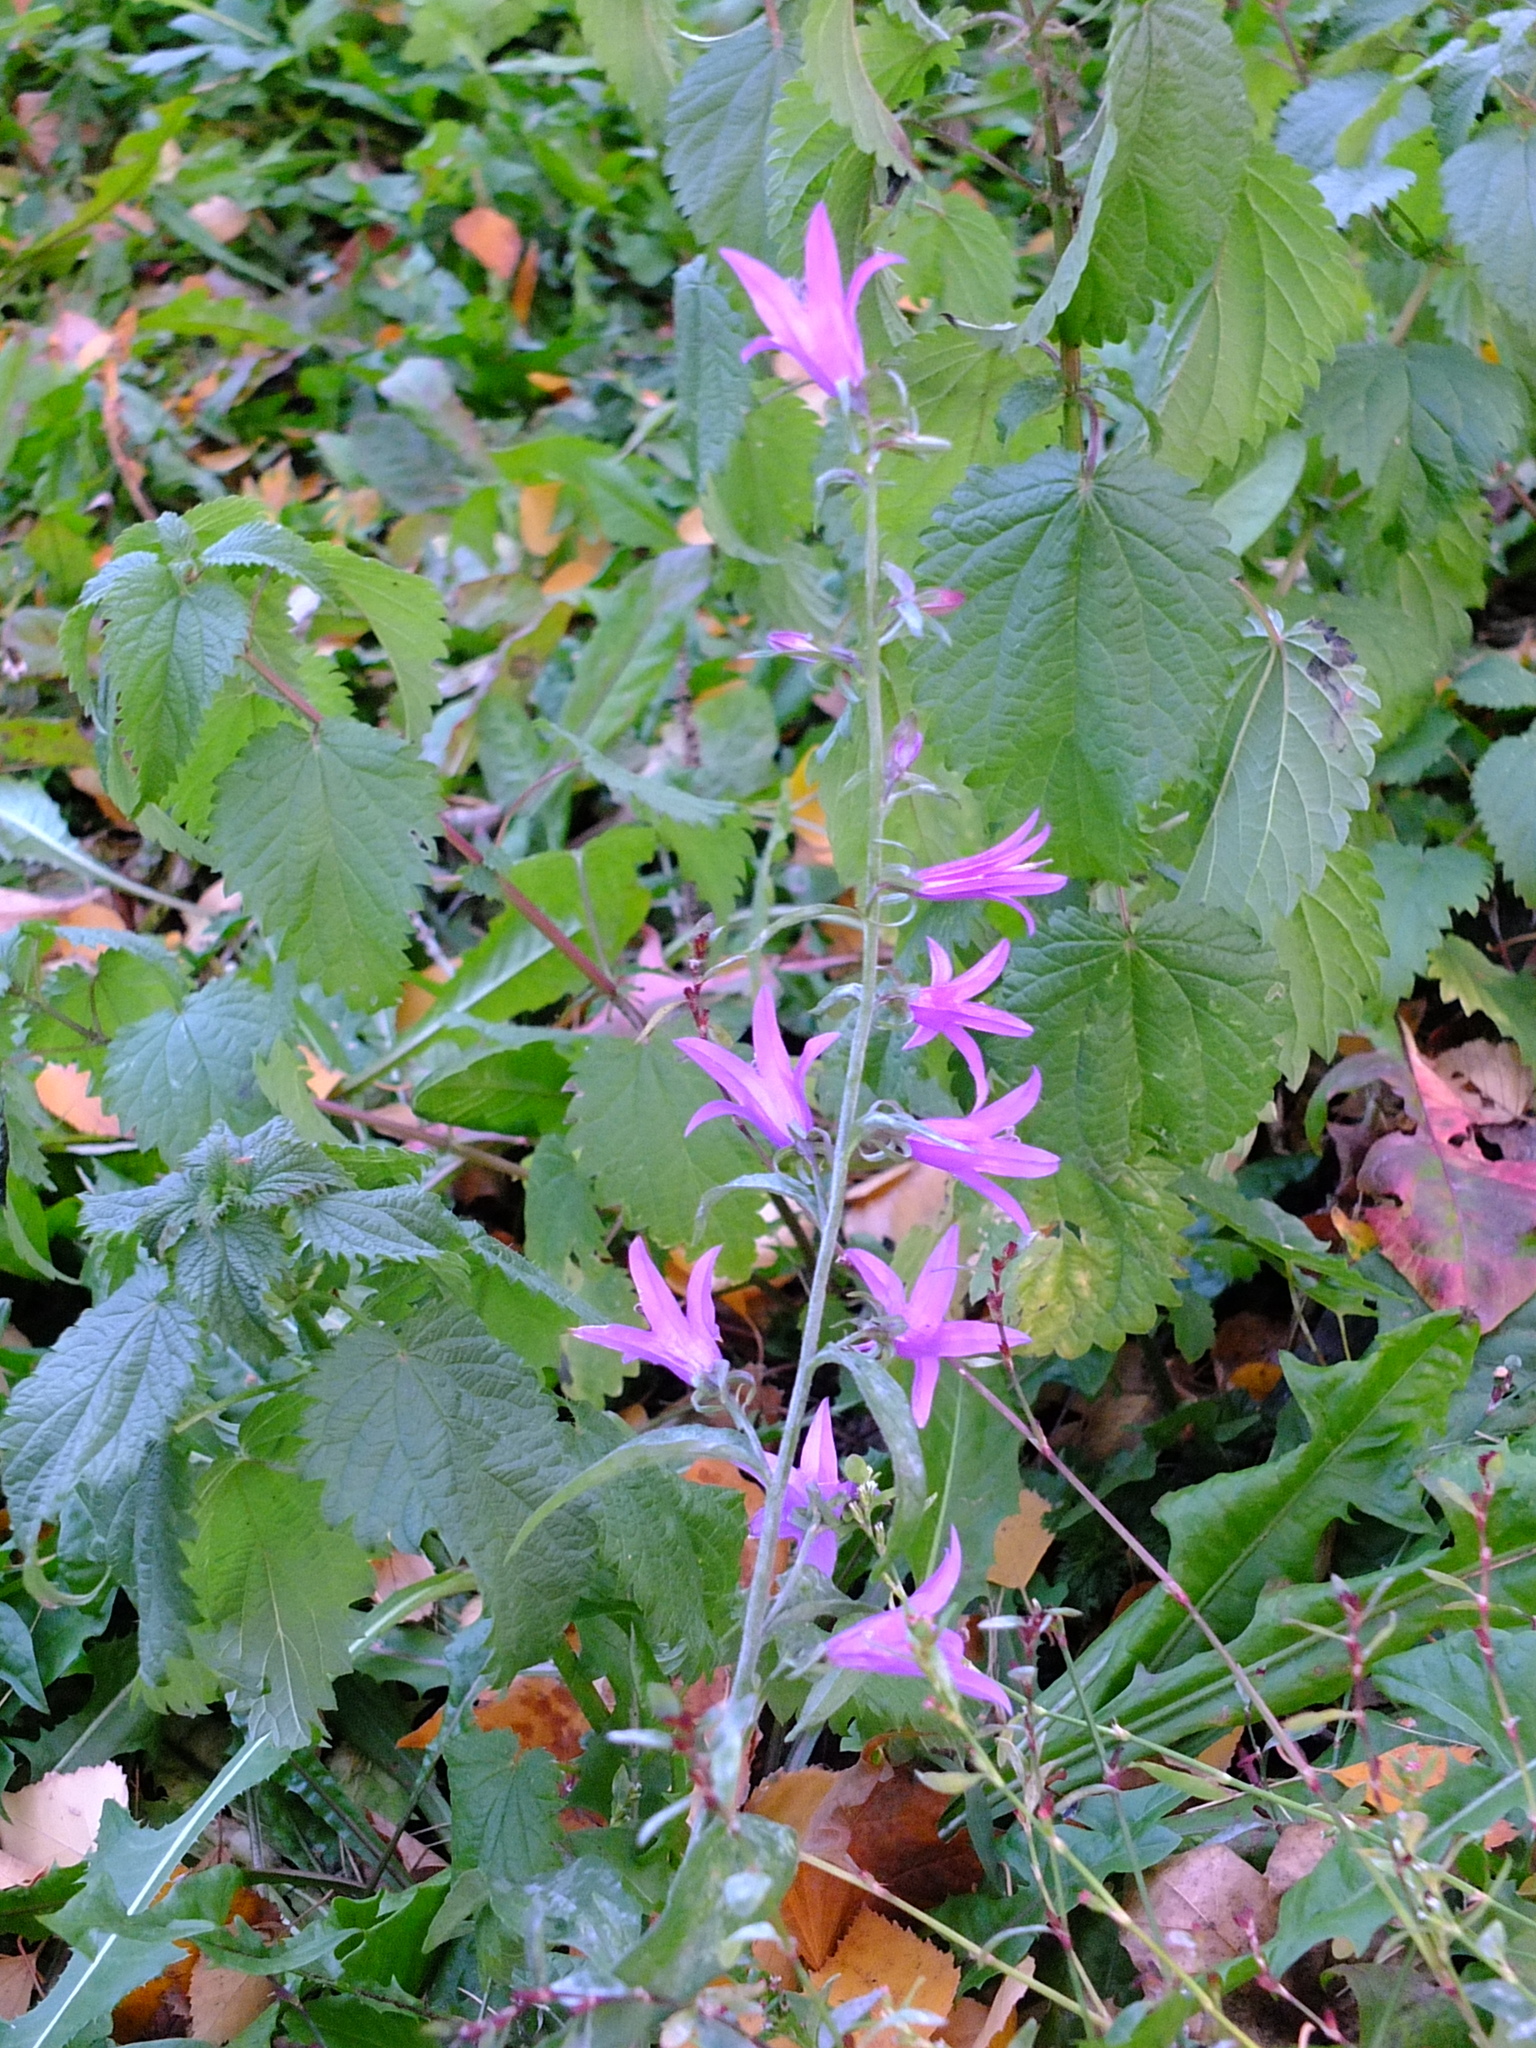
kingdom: Plantae
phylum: Tracheophyta
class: Magnoliopsida
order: Asterales
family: Campanulaceae
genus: Campanula
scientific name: Campanula rapunculoides
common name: Creeping bellflower
